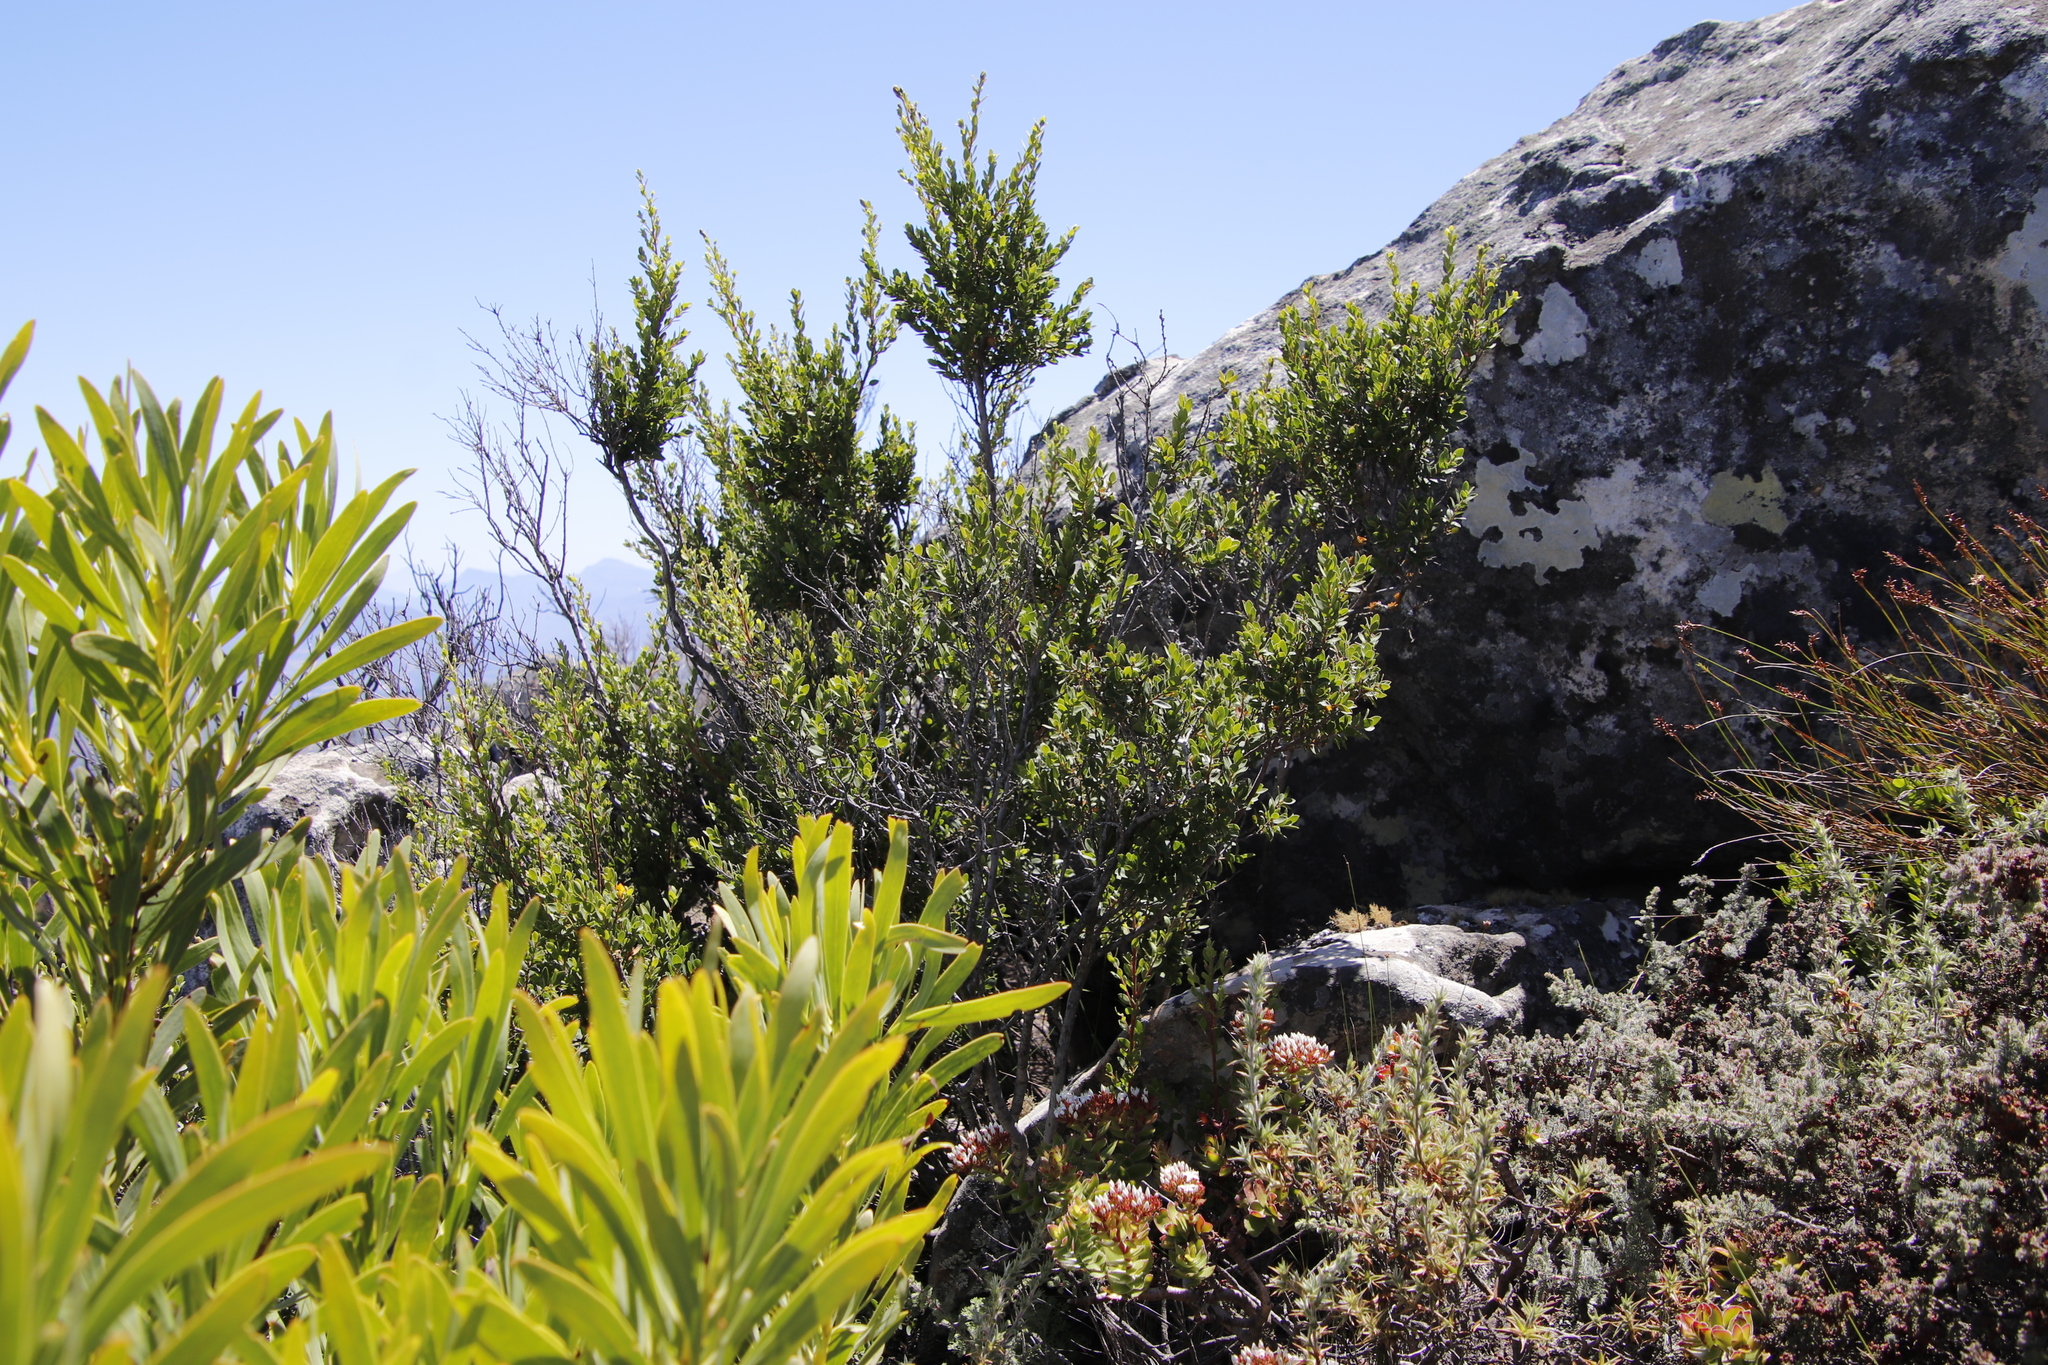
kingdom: Plantae
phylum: Tracheophyta
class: Magnoliopsida
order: Ericales
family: Ebenaceae
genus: Diospyros
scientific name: Diospyros glabra
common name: Fynbos star apple
